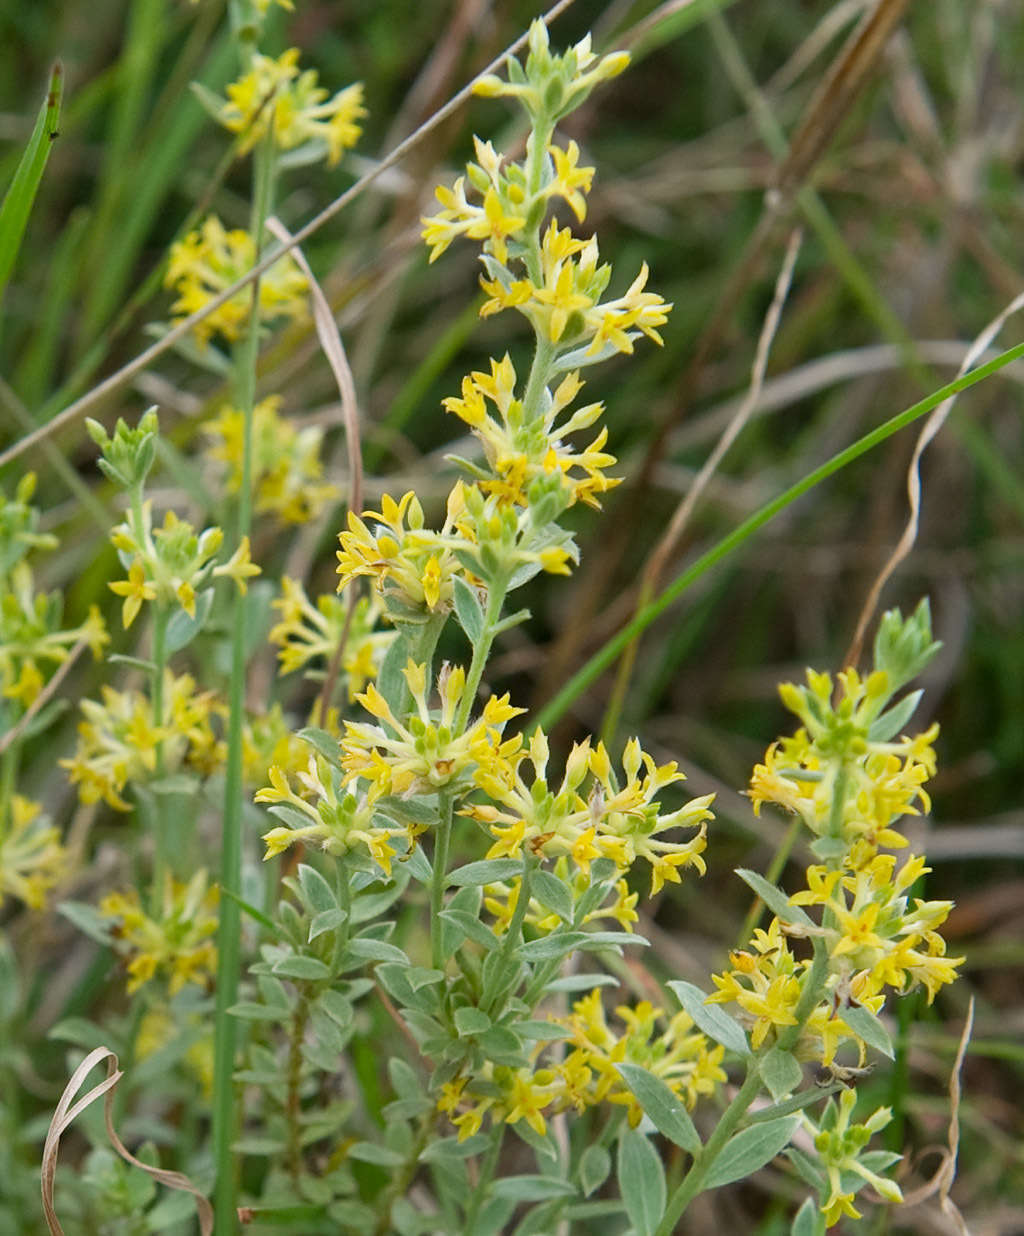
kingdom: Plantae
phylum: Tracheophyta
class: Magnoliopsida
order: Malvales
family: Thymelaeaceae
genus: Pimelea
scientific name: Pimelea curviflora
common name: Curved riceflower
